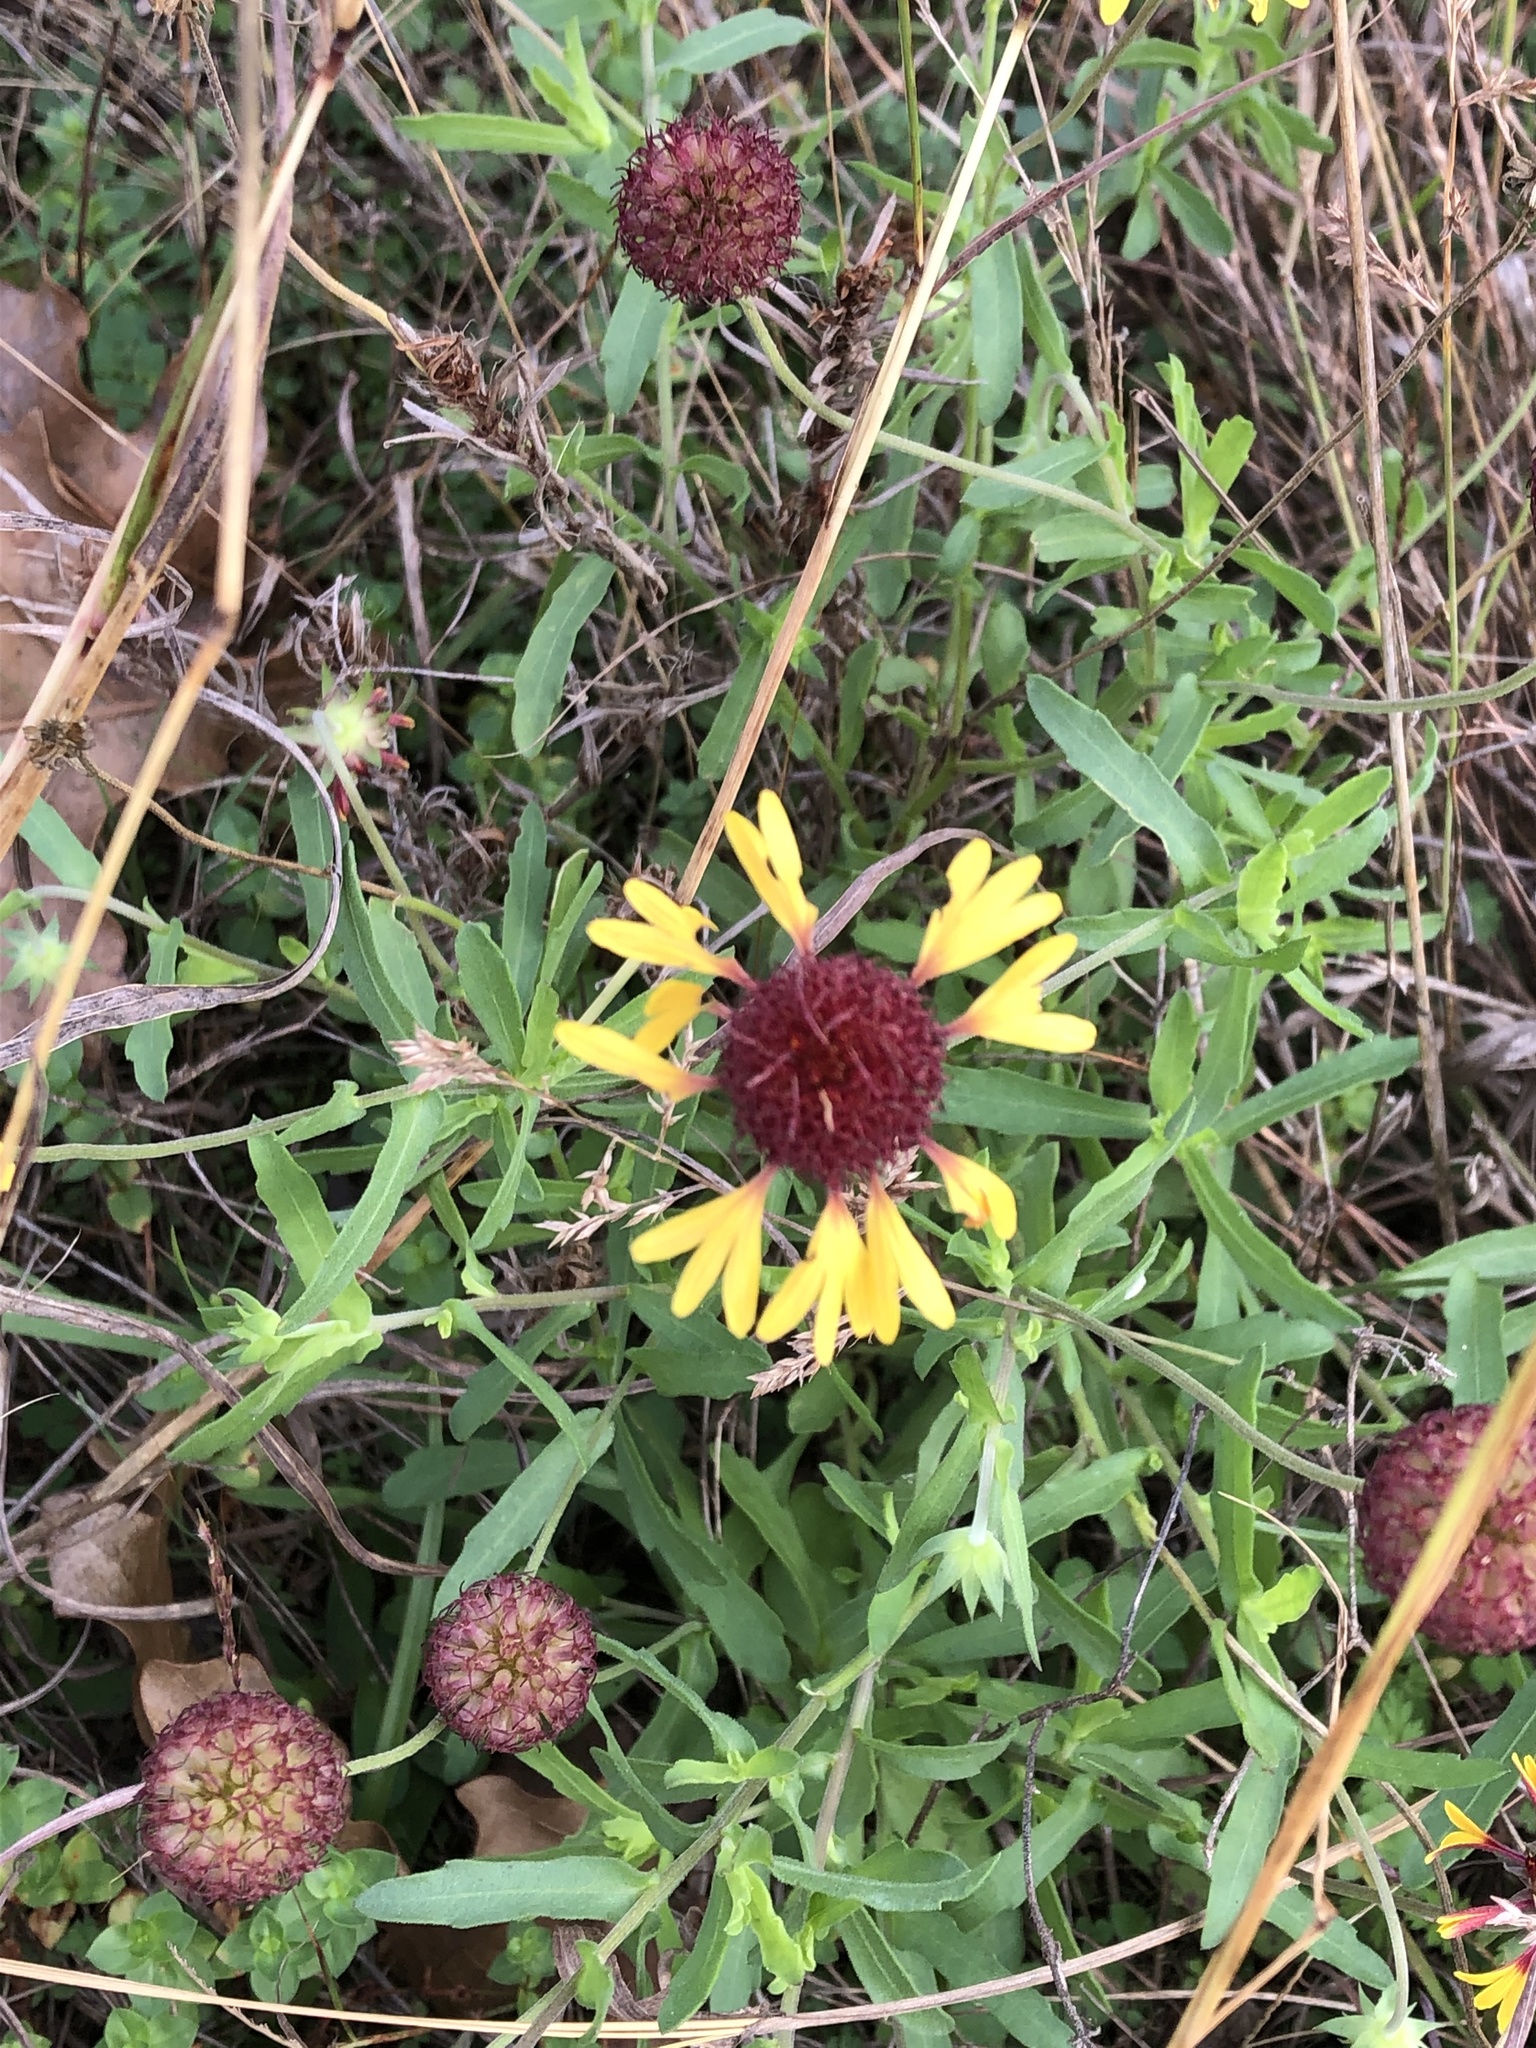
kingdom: Plantae
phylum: Tracheophyta
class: Magnoliopsida
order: Asterales
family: Asteraceae
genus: Gaillardia
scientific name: Gaillardia aestivalis
